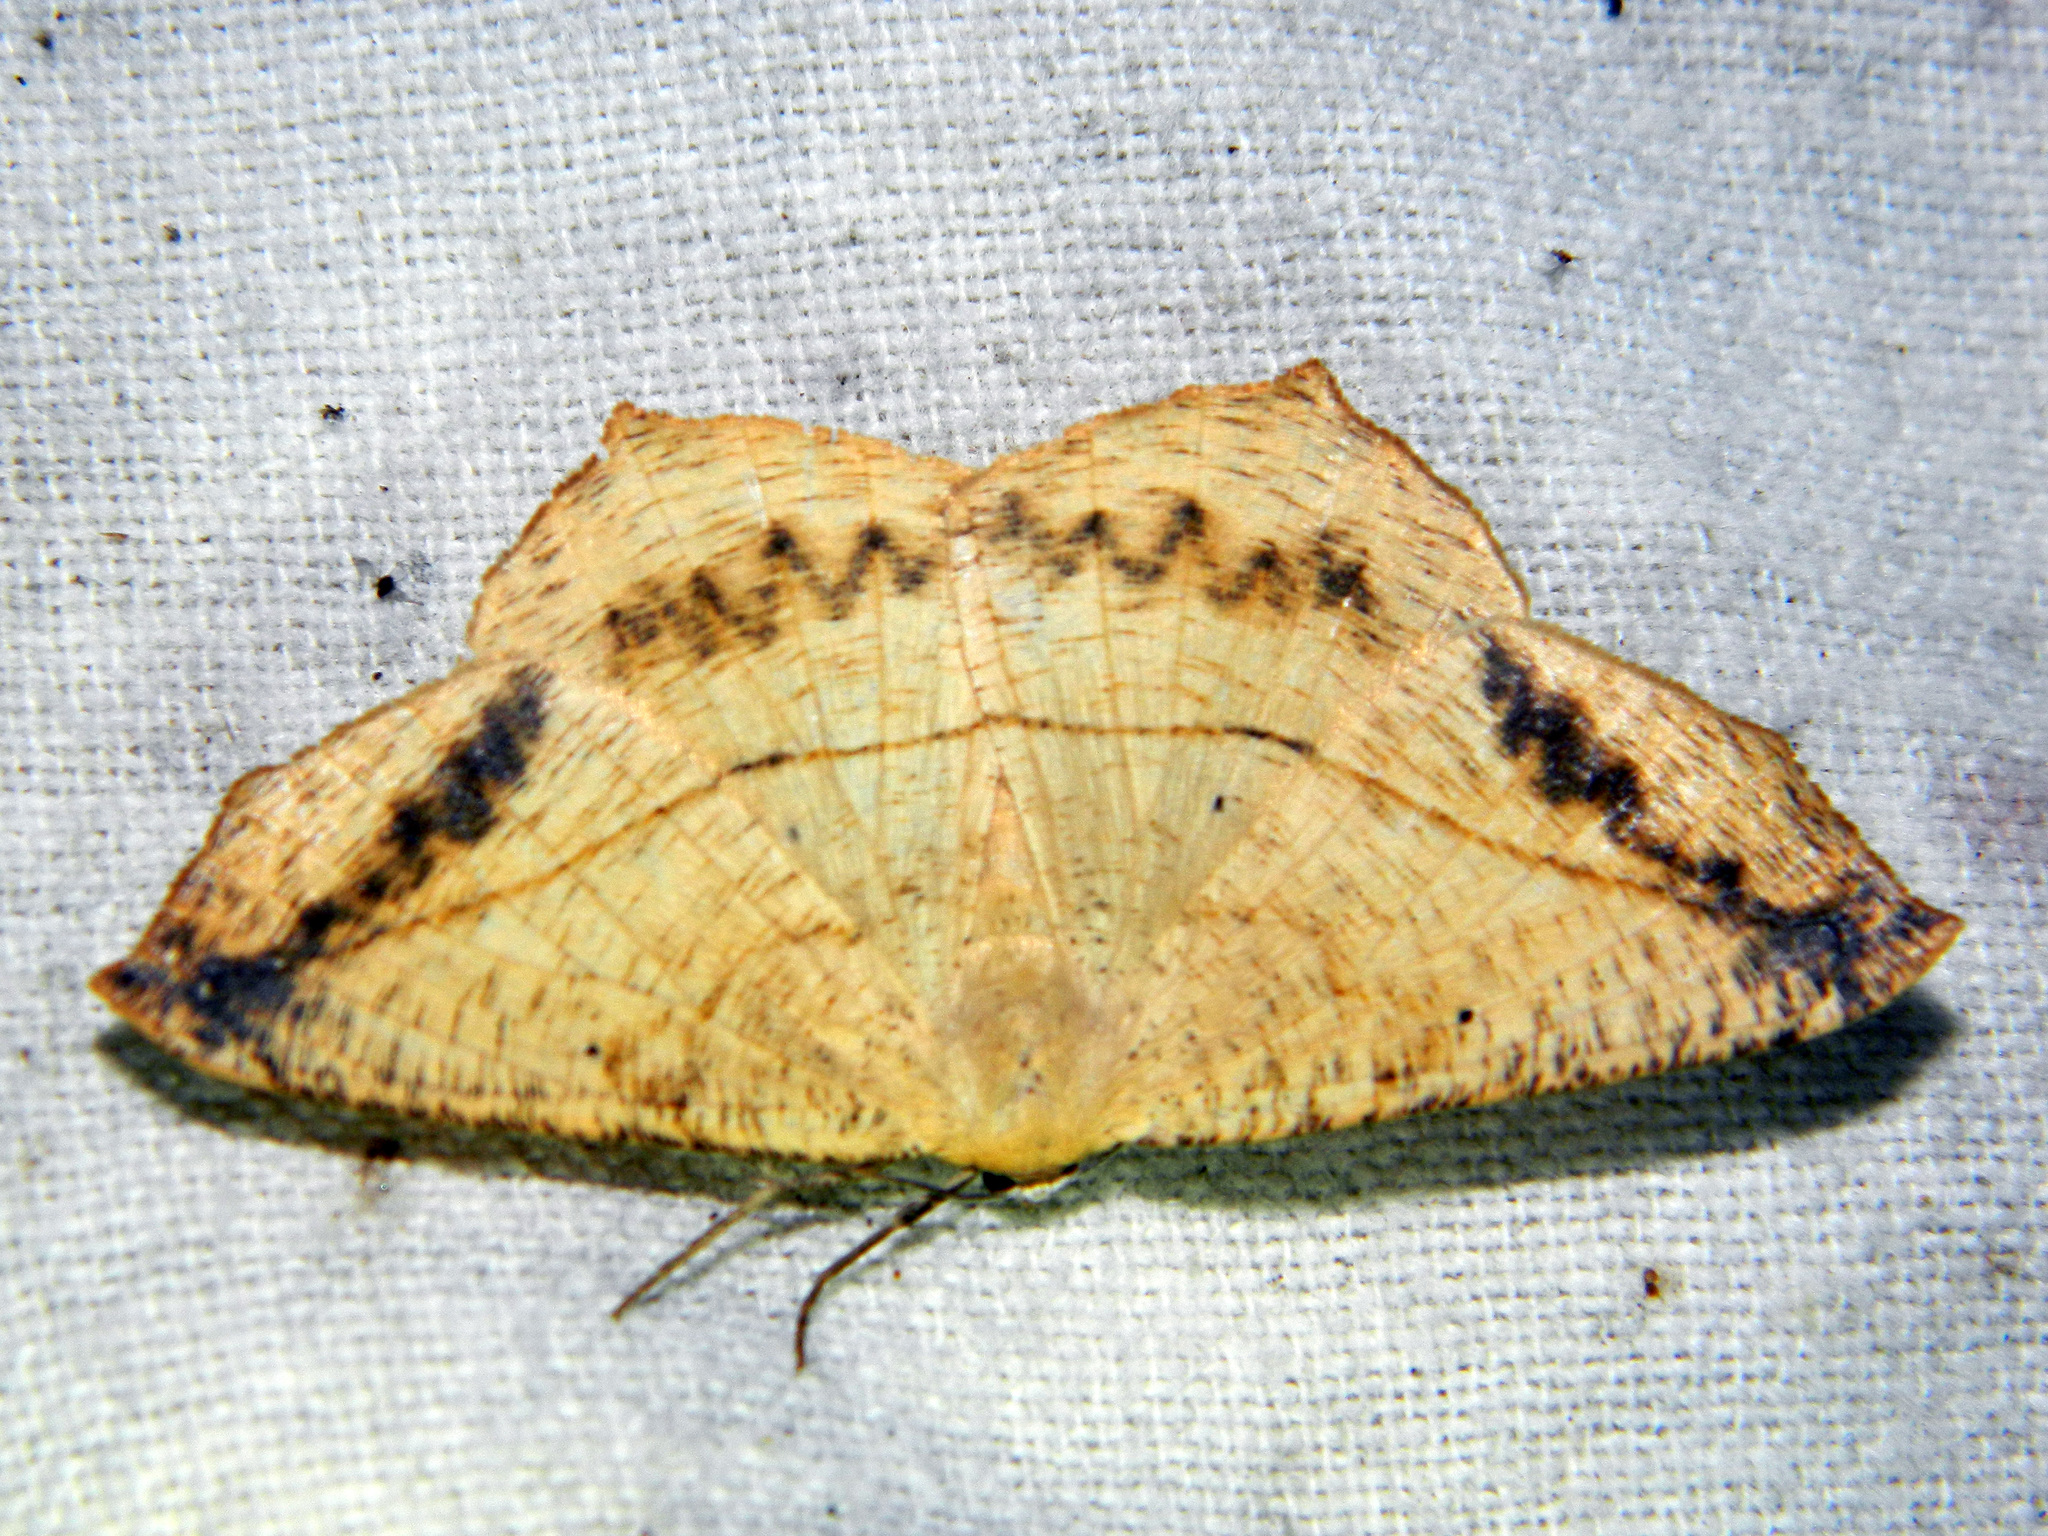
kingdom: Animalia
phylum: Arthropoda
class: Insecta
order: Lepidoptera
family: Geometridae
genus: Prochoerodes
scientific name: Prochoerodes lineola
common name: Large maple spanworm
